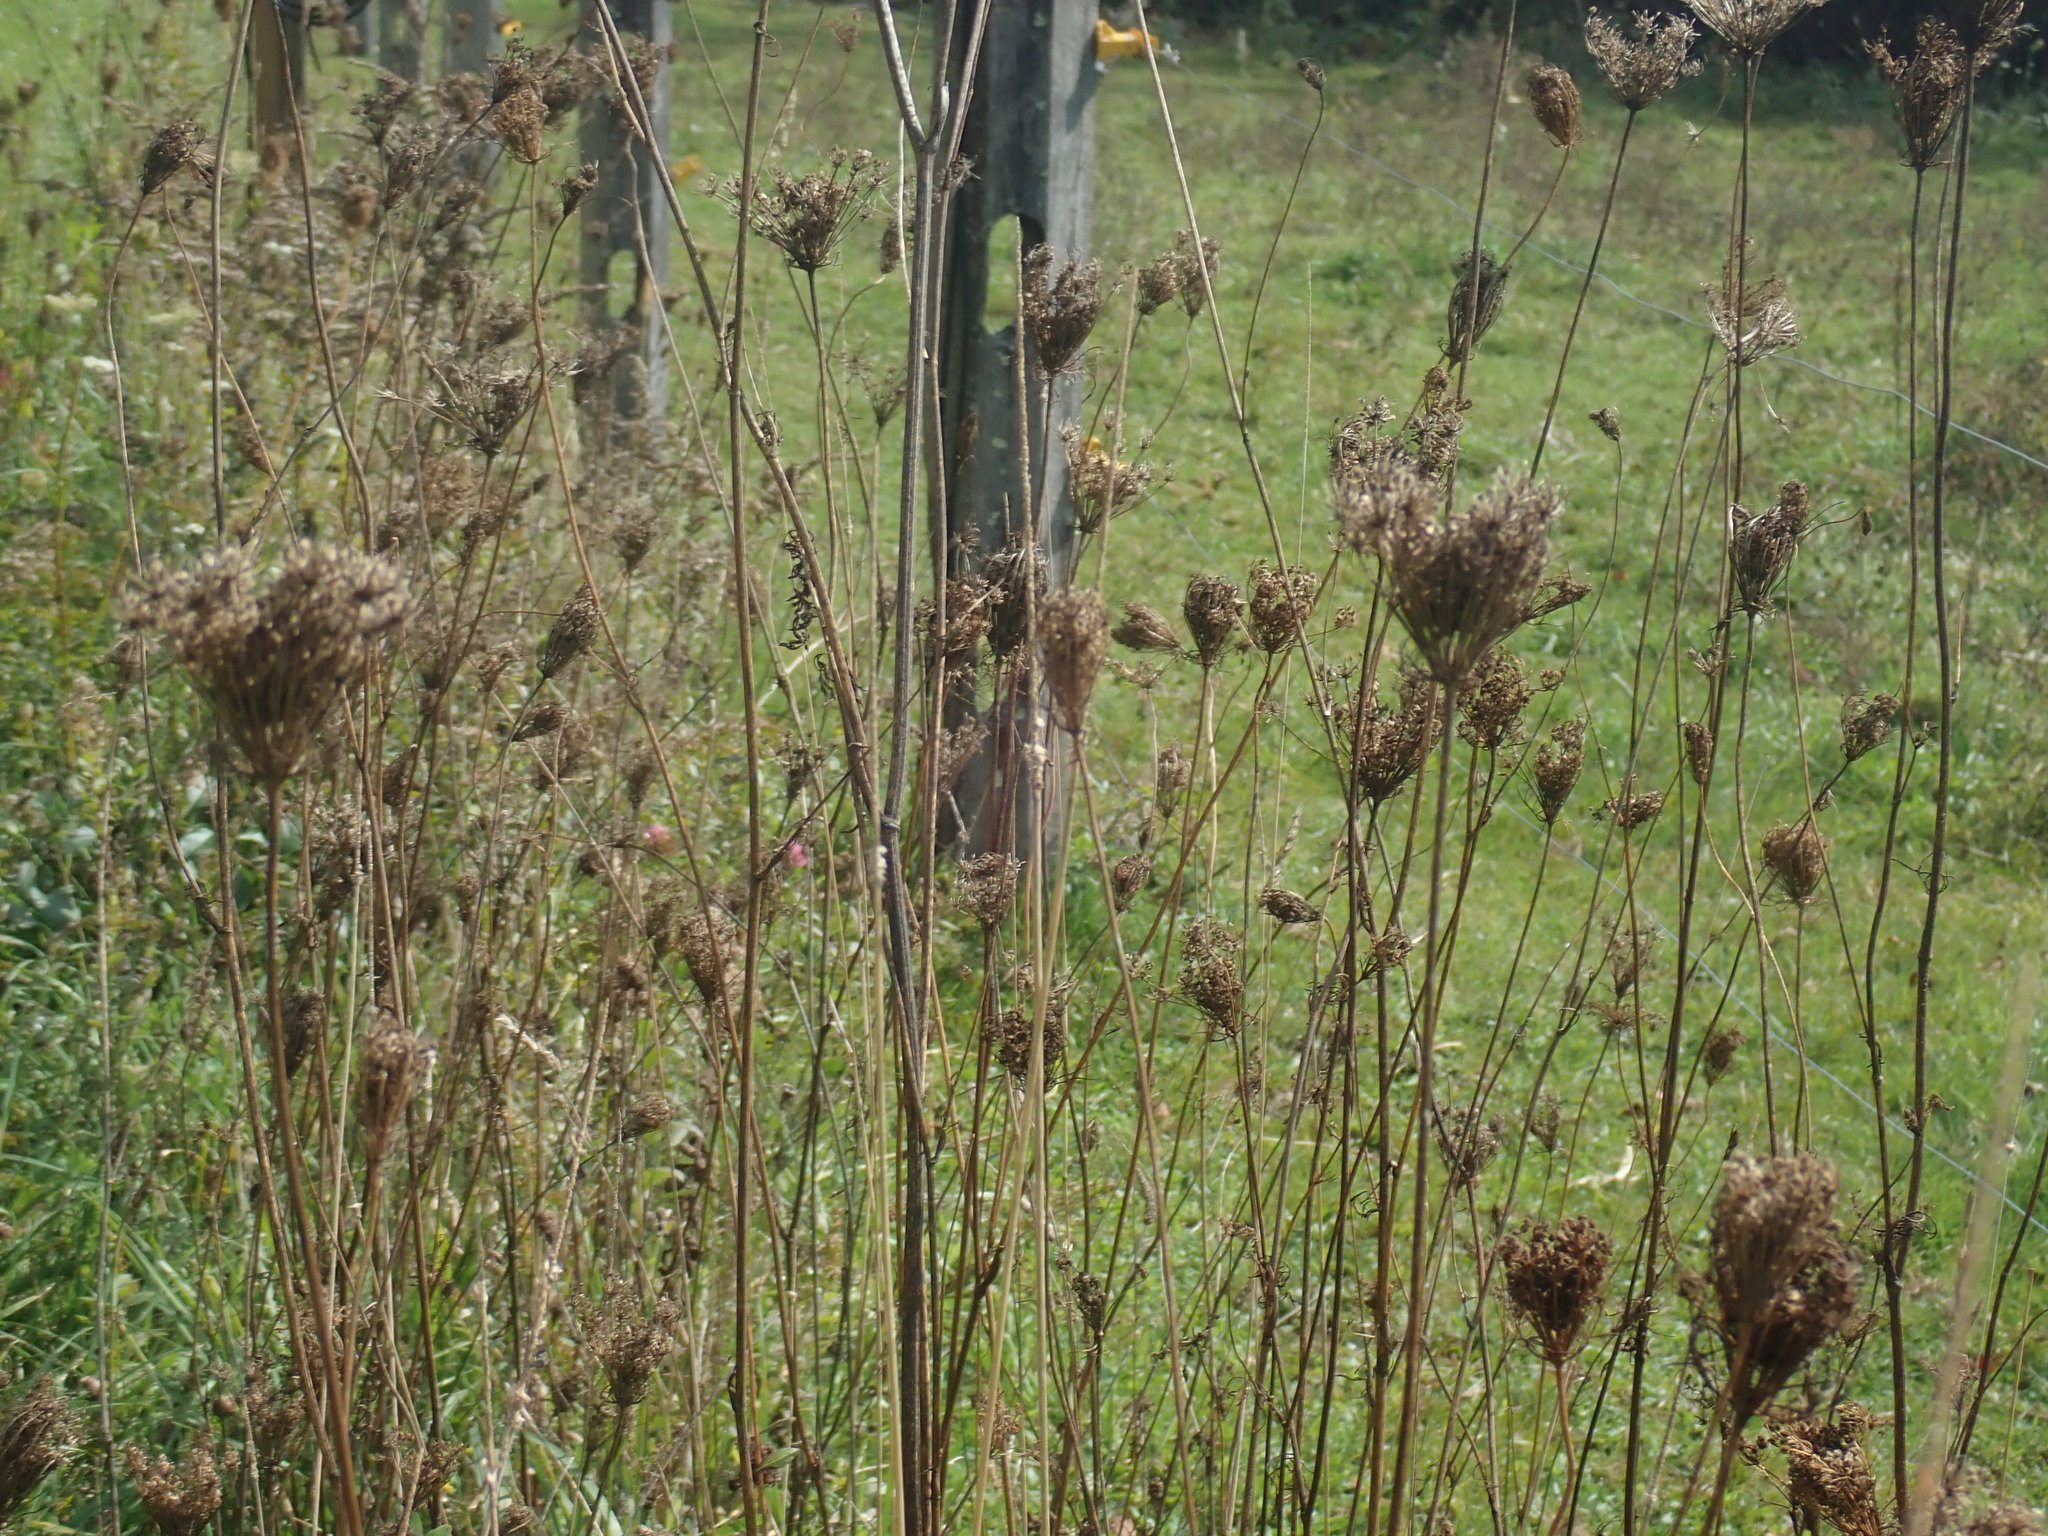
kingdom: Plantae
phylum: Tracheophyta
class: Magnoliopsida
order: Apiales
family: Apiaceae
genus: Daucus
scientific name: Daucus carota
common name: Wild carrot
